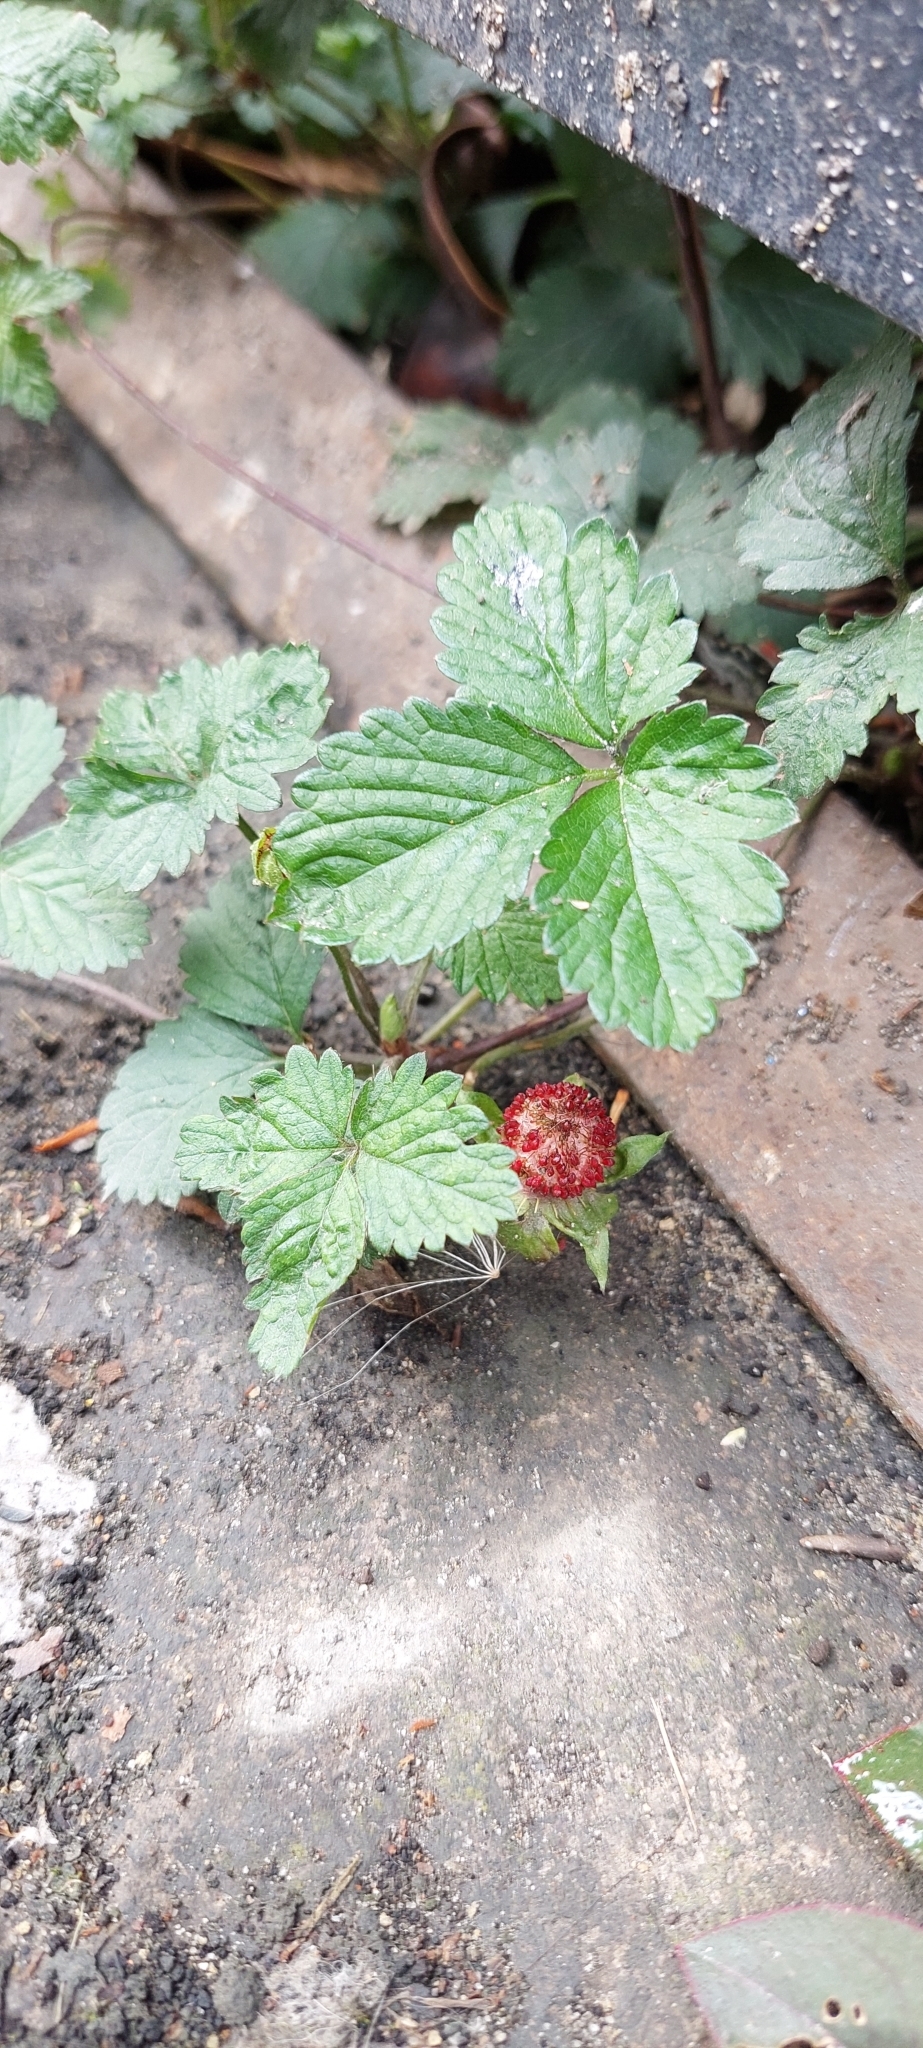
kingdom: Plantae
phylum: Tracheophyta
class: Magnoliopsida
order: Rosales
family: Rosaceae
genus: Potentilla
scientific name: Potentilla indica
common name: Yellow-flowered strawberry
